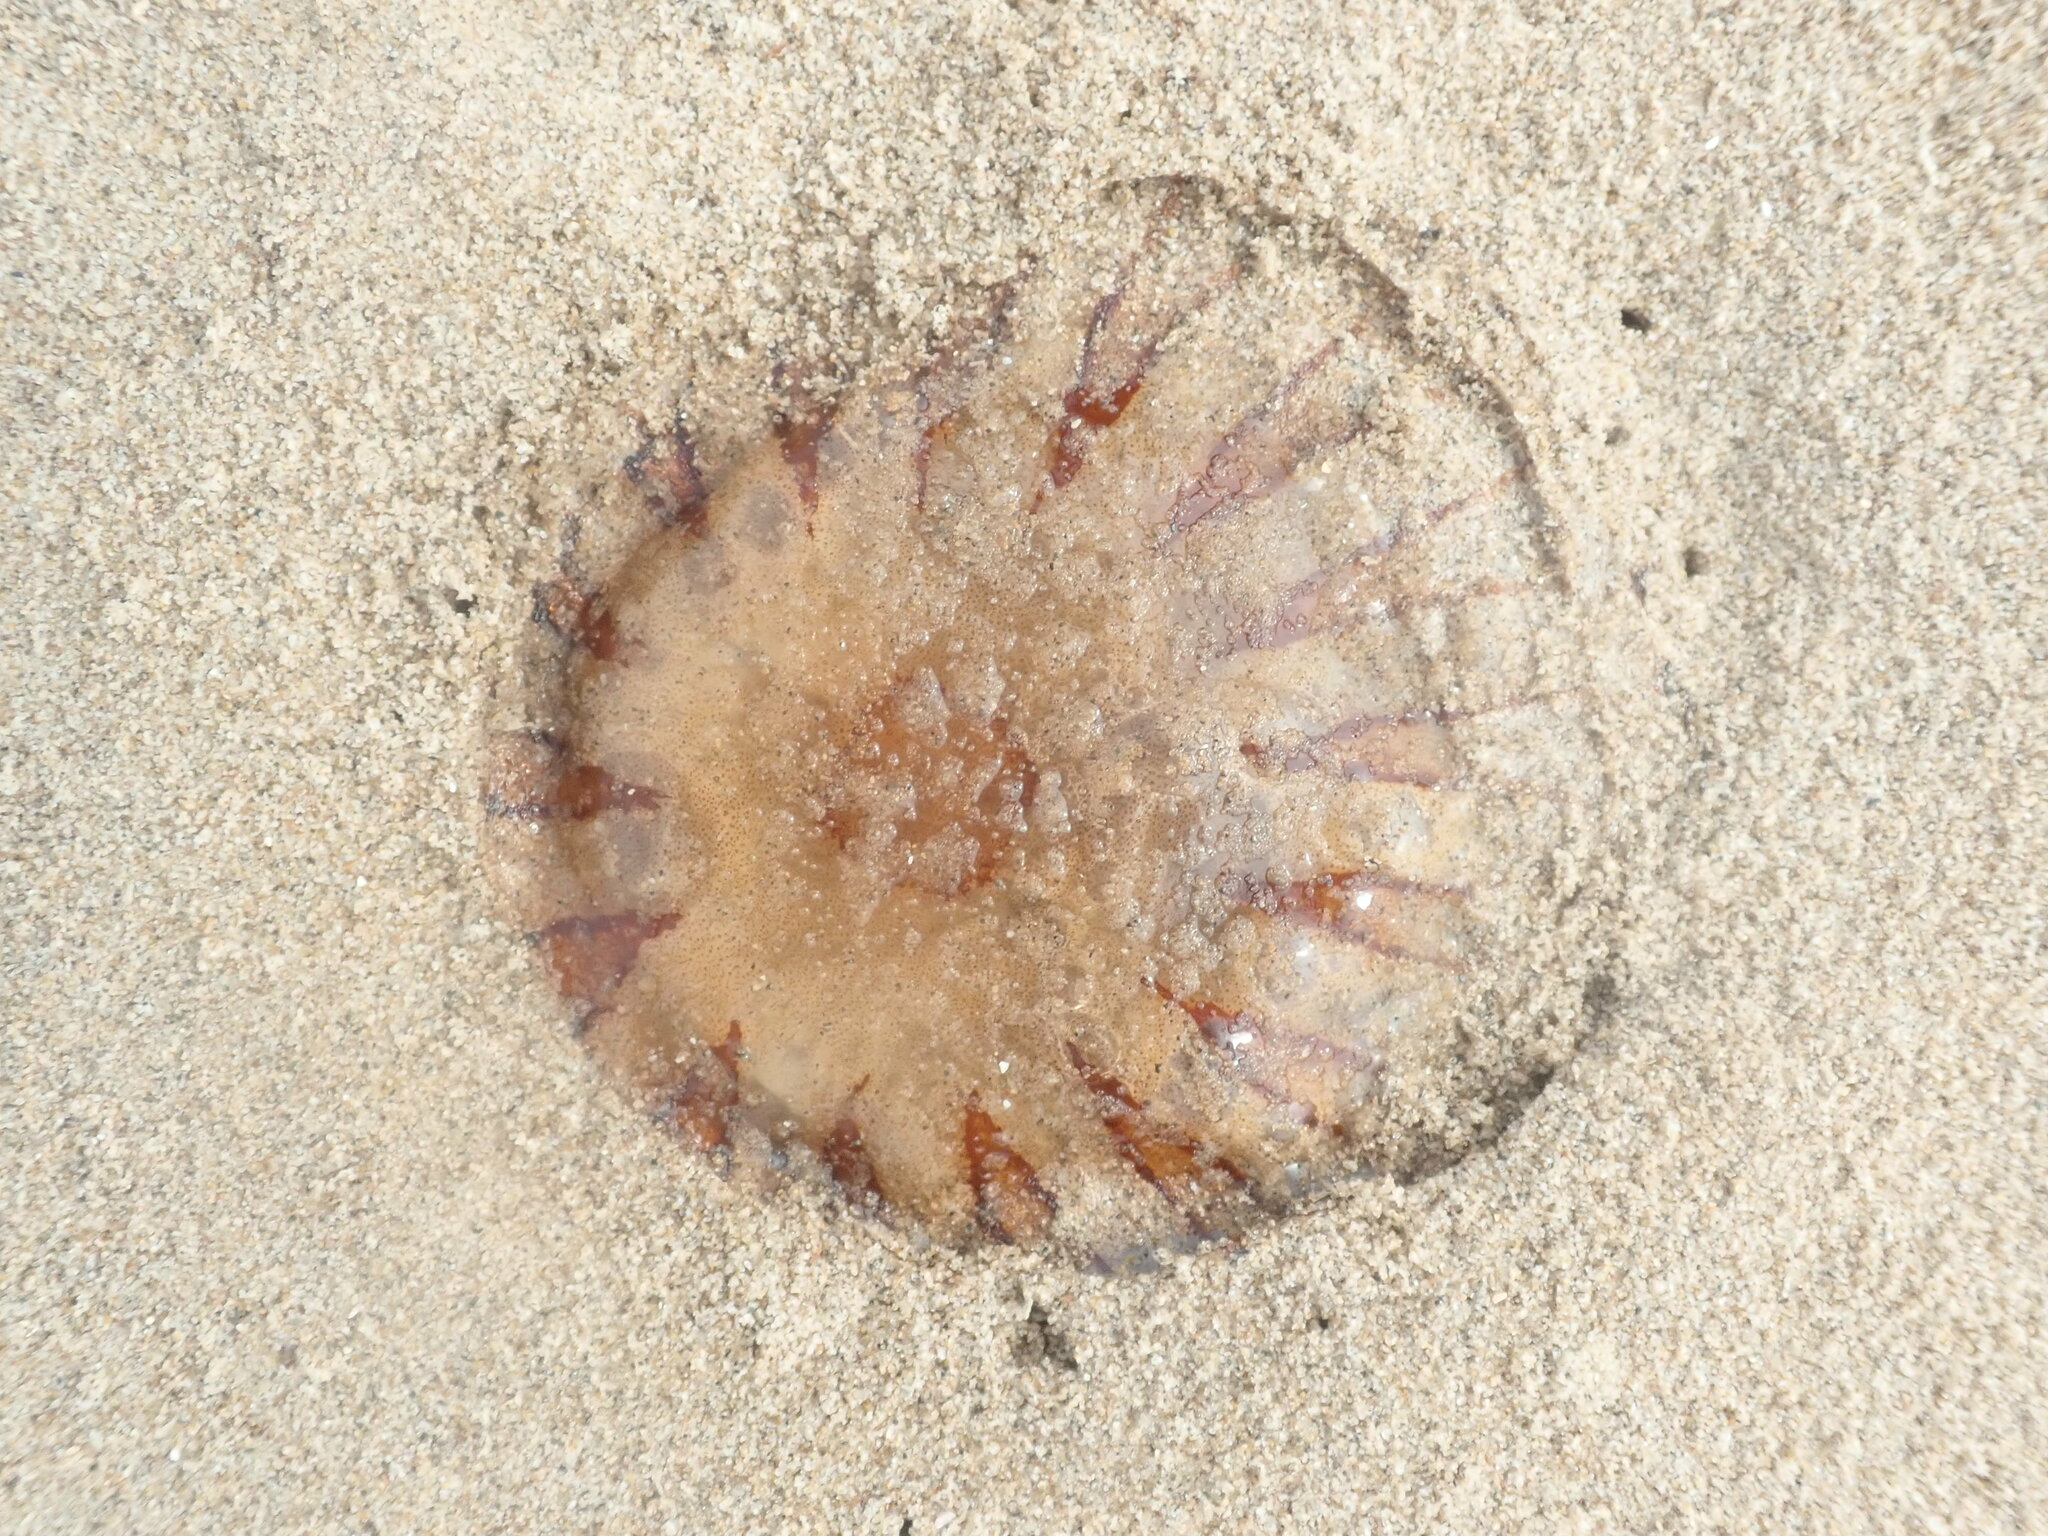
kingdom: Animalia
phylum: Cnidaria
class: Scyphozoa
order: Semaeostomeae
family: Pelagiidae
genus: Chrysaora
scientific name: Chrysaora hysoscella
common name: Compass jellyfish
